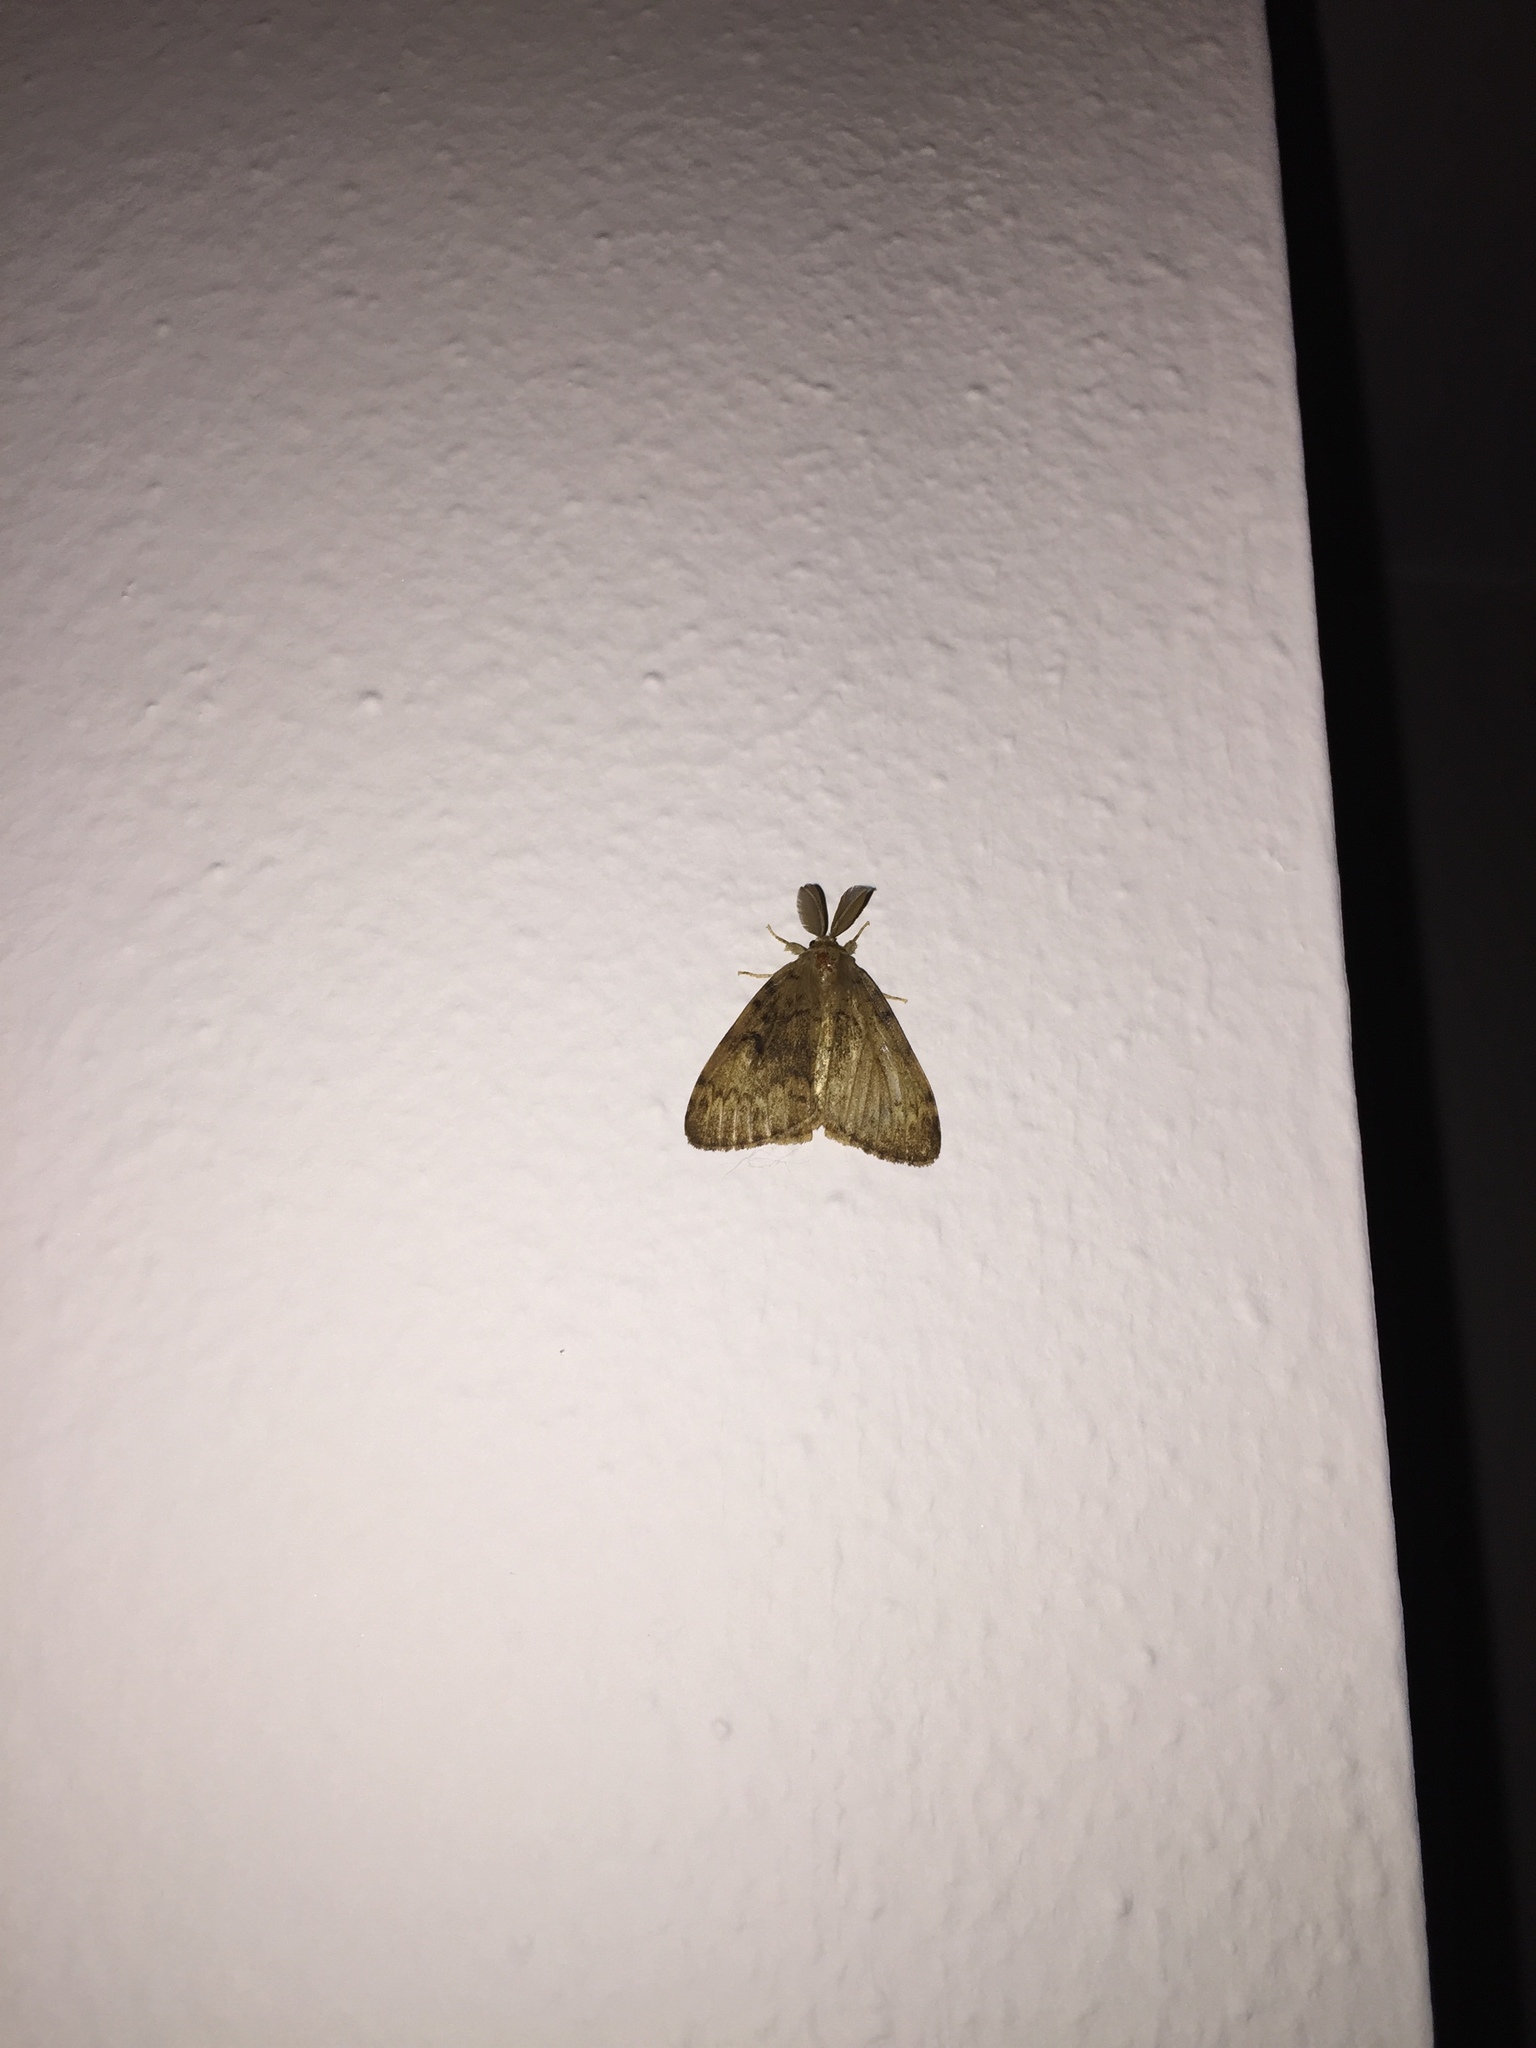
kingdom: Animalia
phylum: Arthropoda
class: Insecta
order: Lepidoptera
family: Erebidae
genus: Lymantria
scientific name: Lymantria dispar
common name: Gypsy moth
